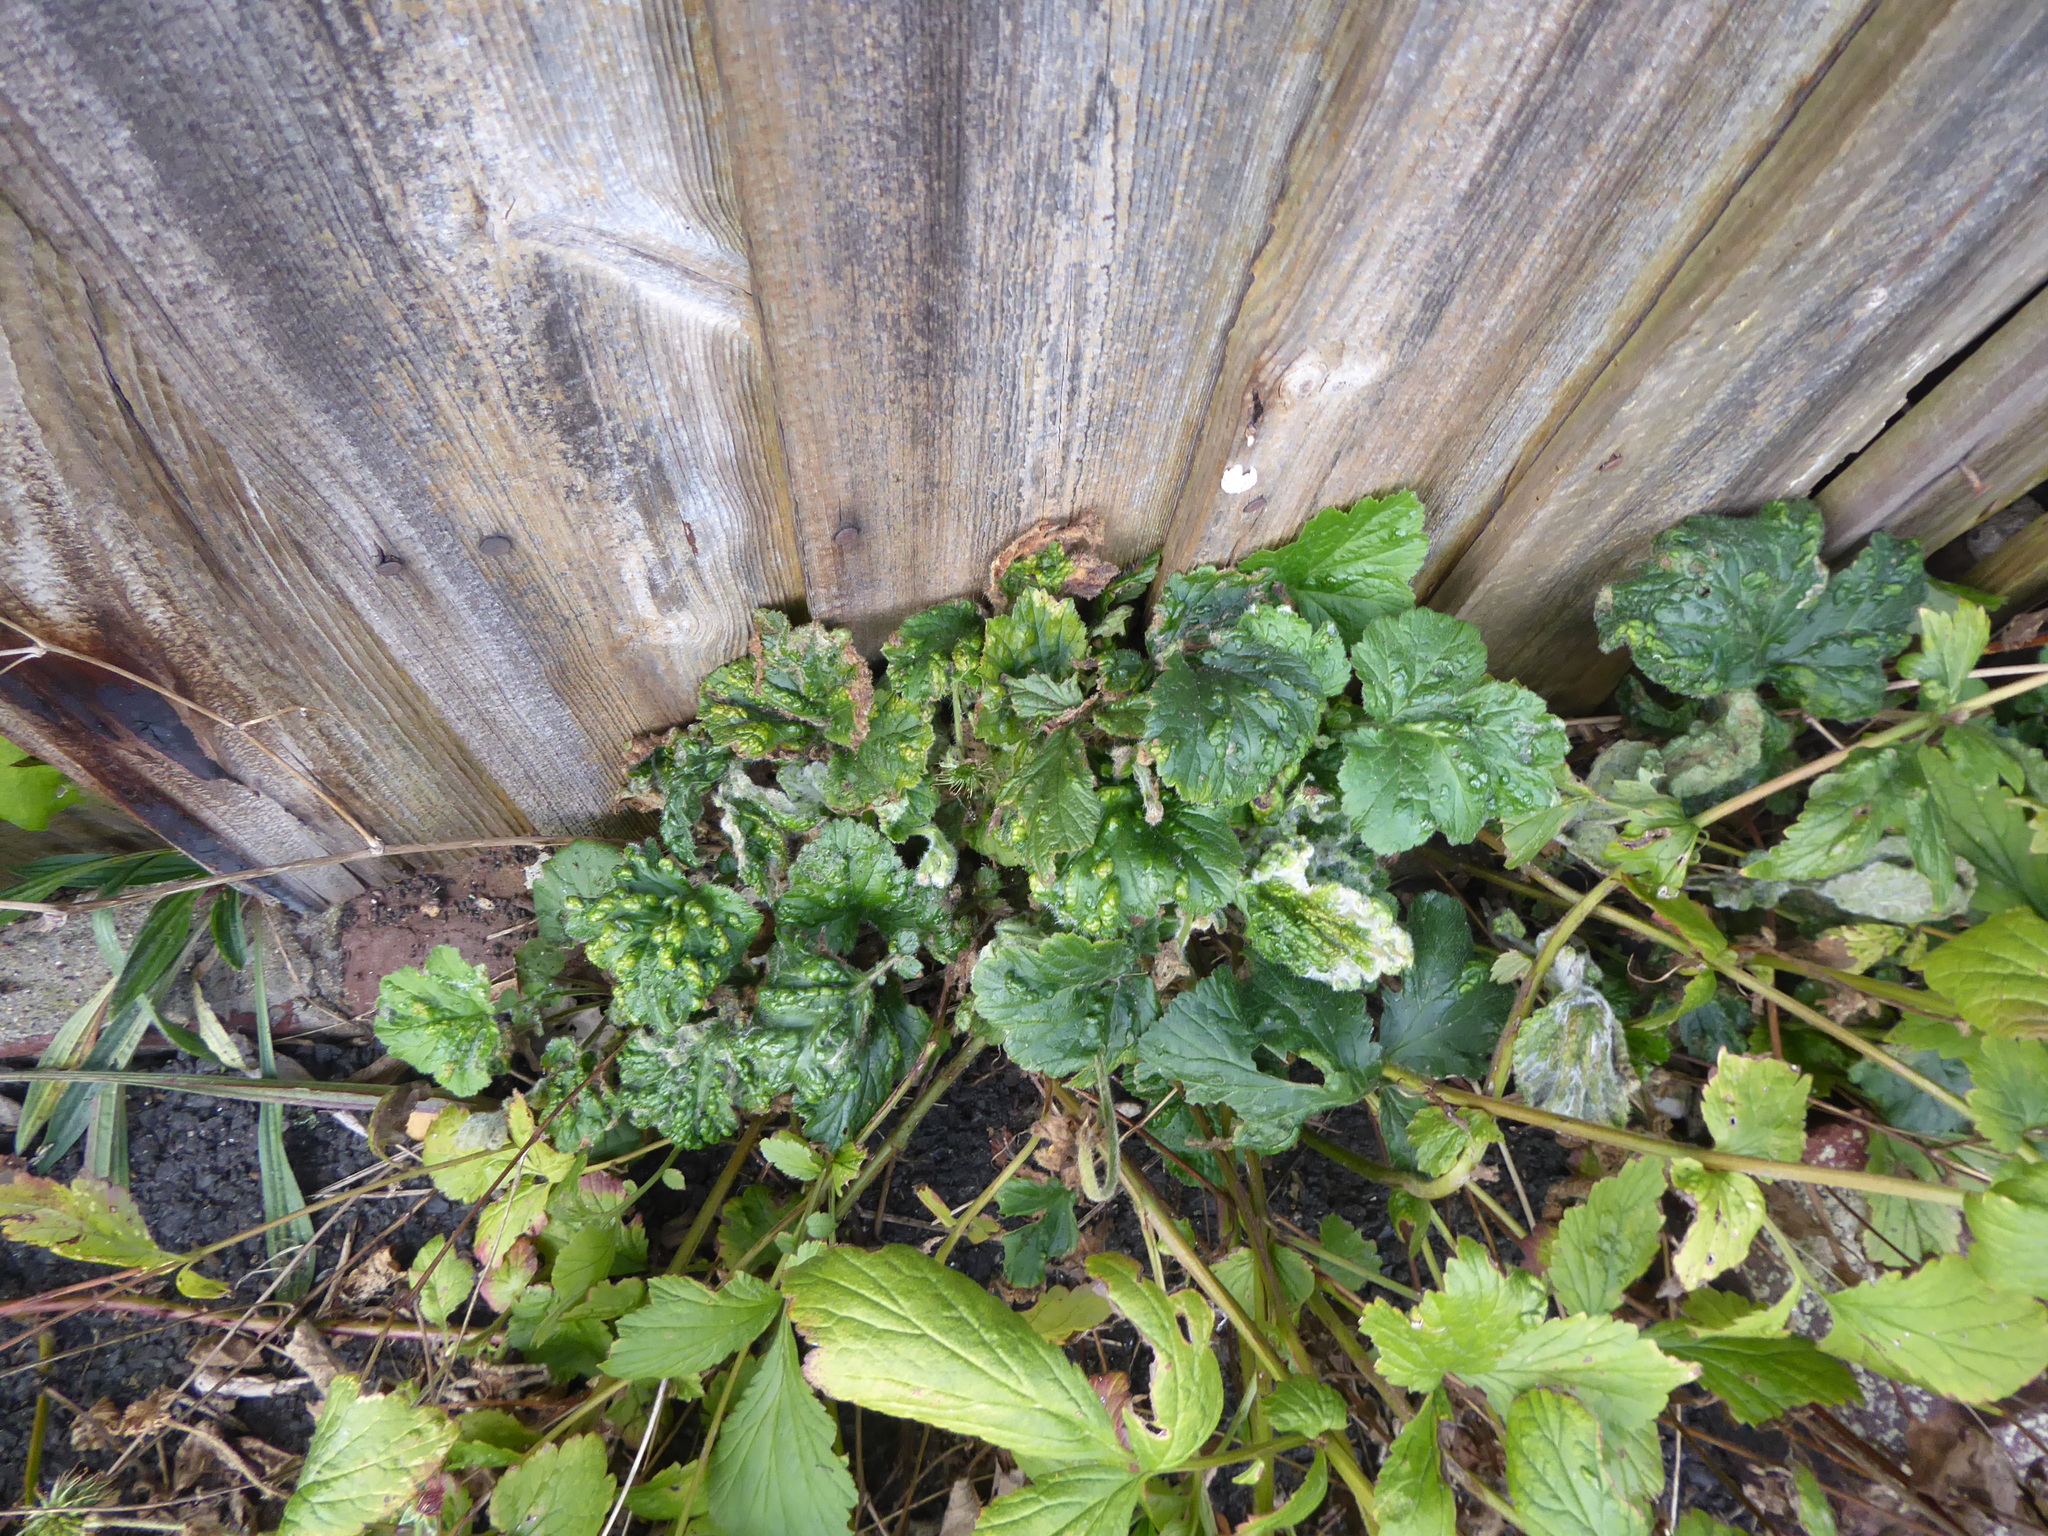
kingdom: Animalia
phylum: Arthropoda
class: Arachnida
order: Trombidiformes
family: Eriophyidae
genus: Cecidophyes
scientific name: Cecidophyes nudus
